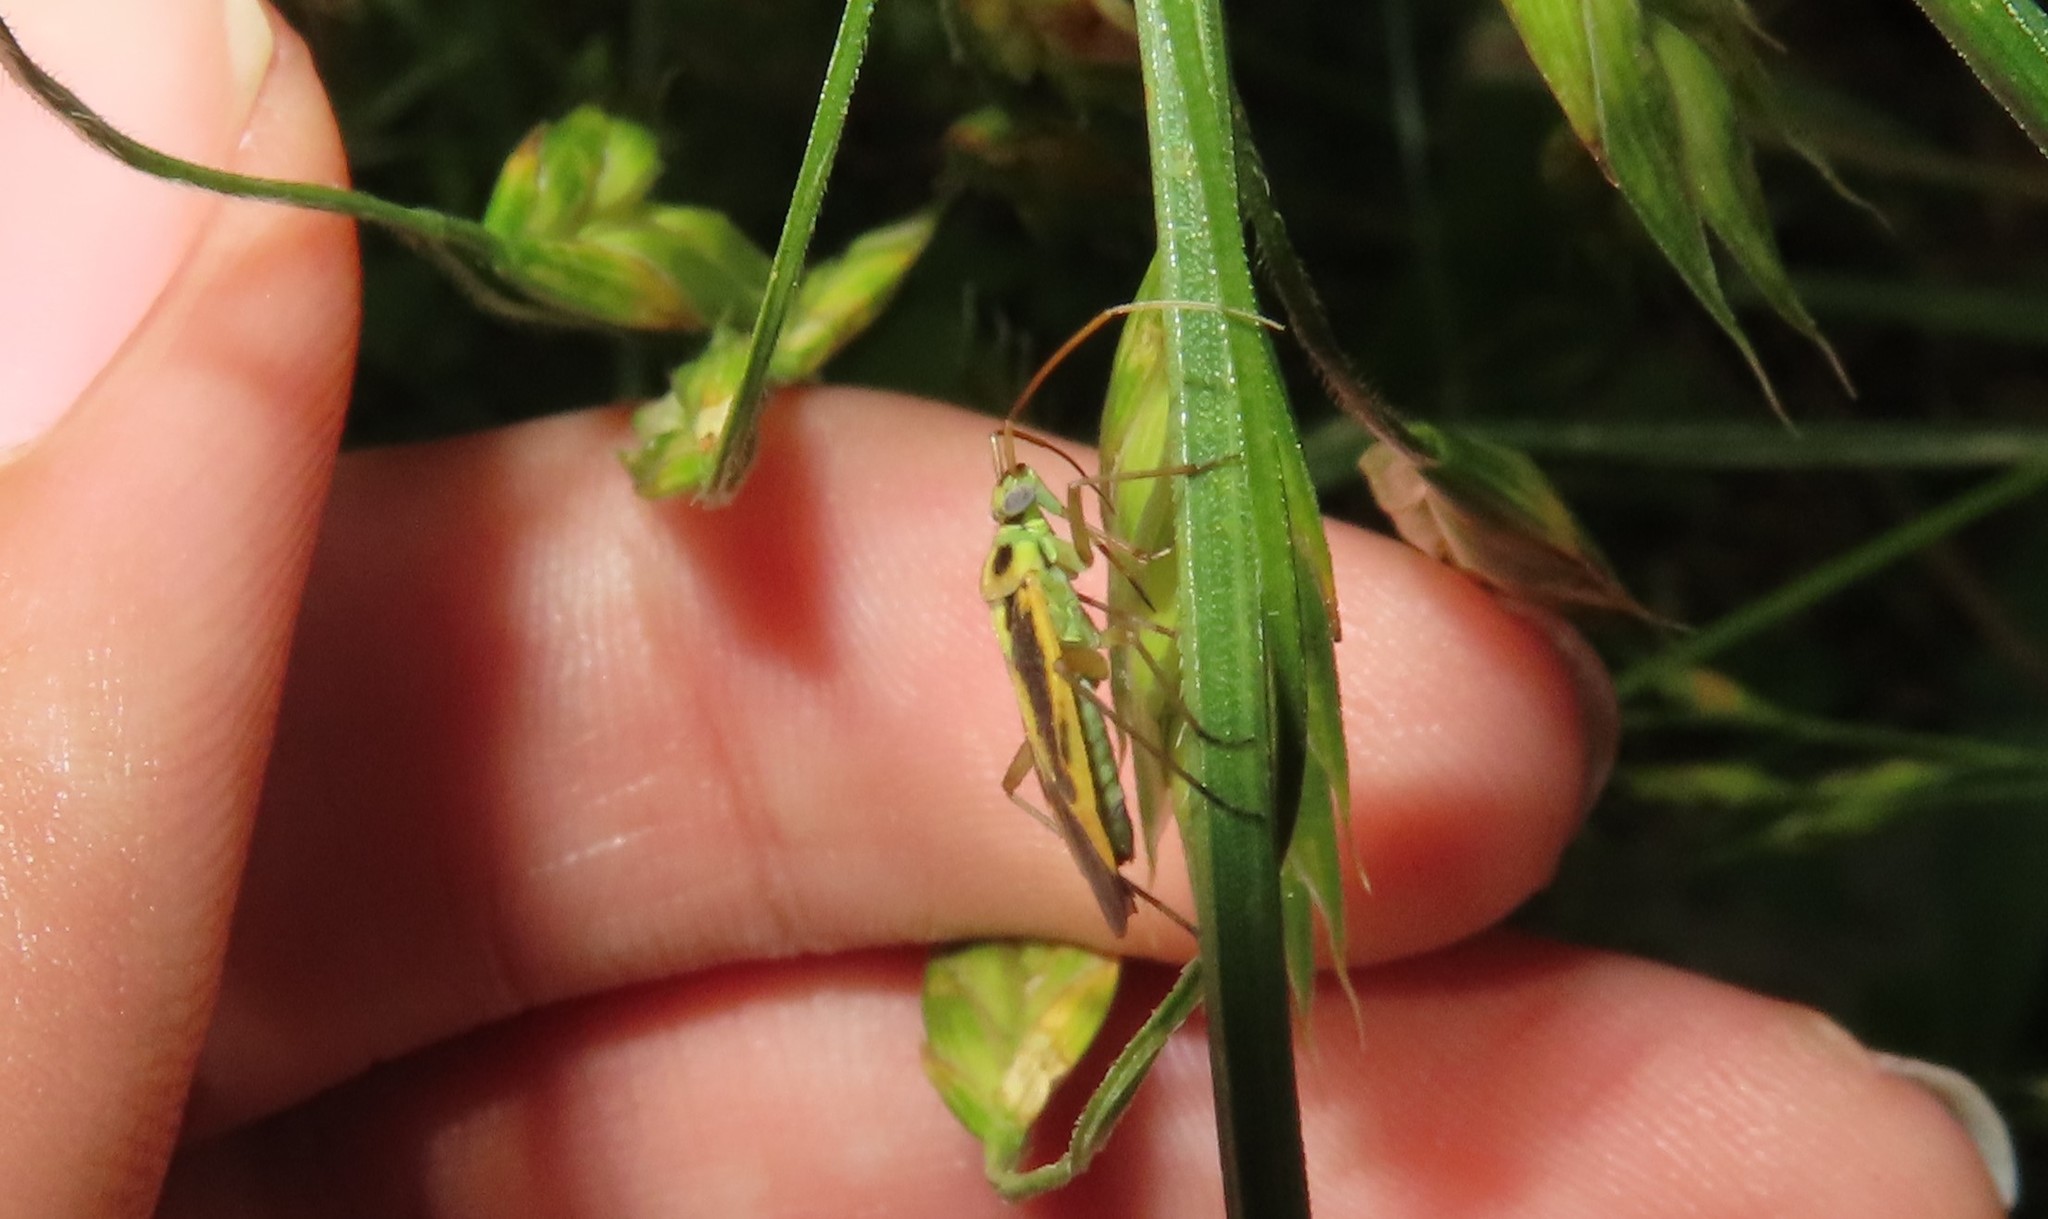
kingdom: Animalia
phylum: Arthropoda
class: Insecta
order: Hemiptera
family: Miridae
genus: Stenotus
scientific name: Stenotus binotatus
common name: Plant bug
